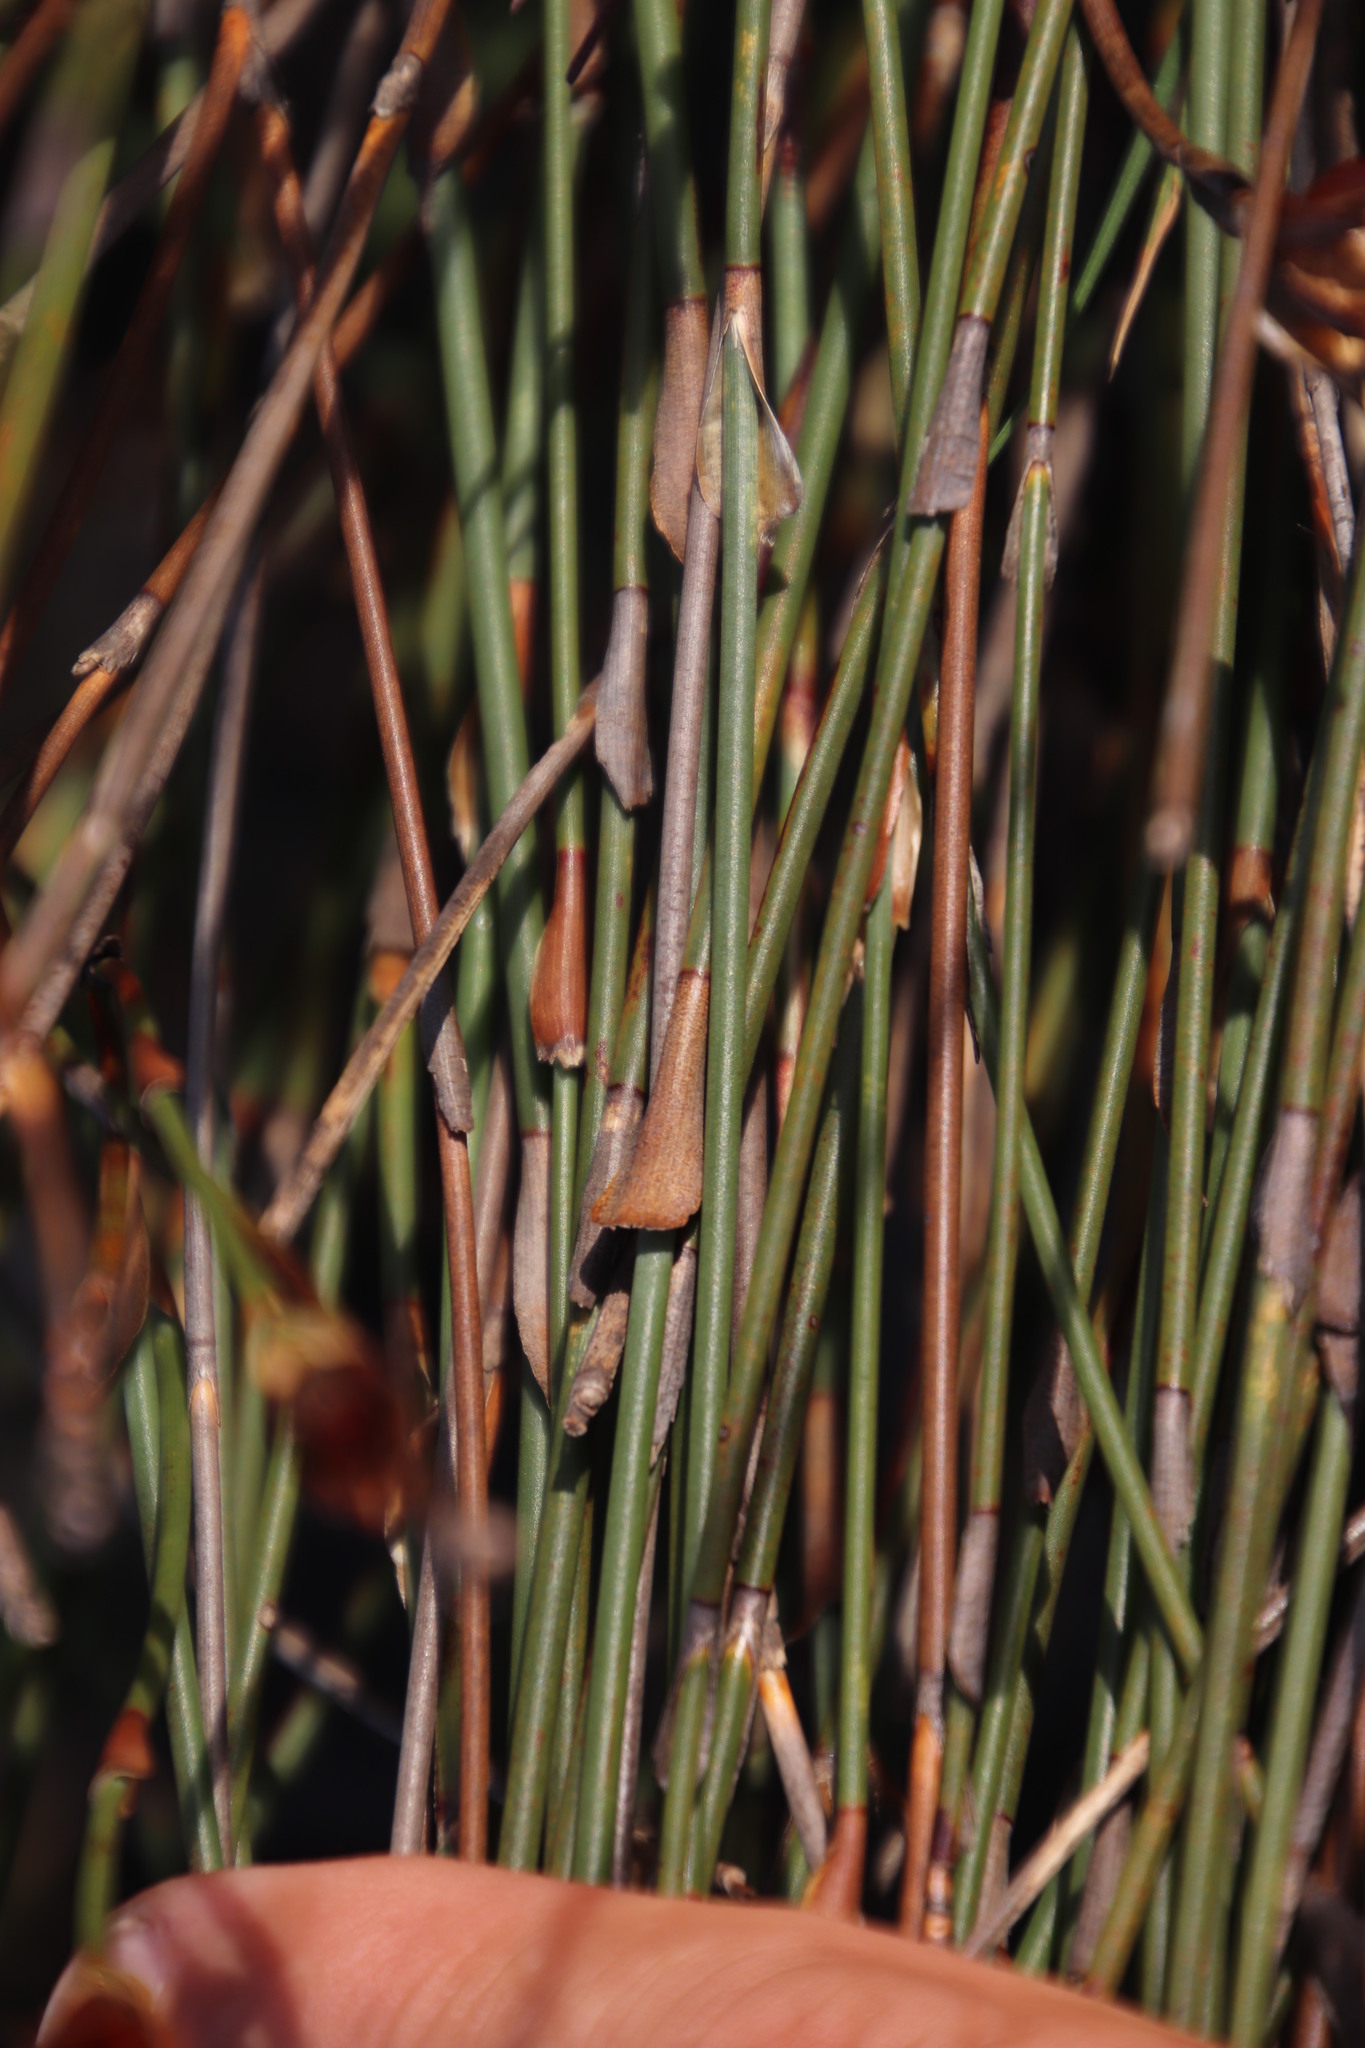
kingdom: Plantae
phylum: Tracheophyta
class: Liliopsida
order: Poales
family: Restionaceae
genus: Willdenowia
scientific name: Willdenowia incurvata
